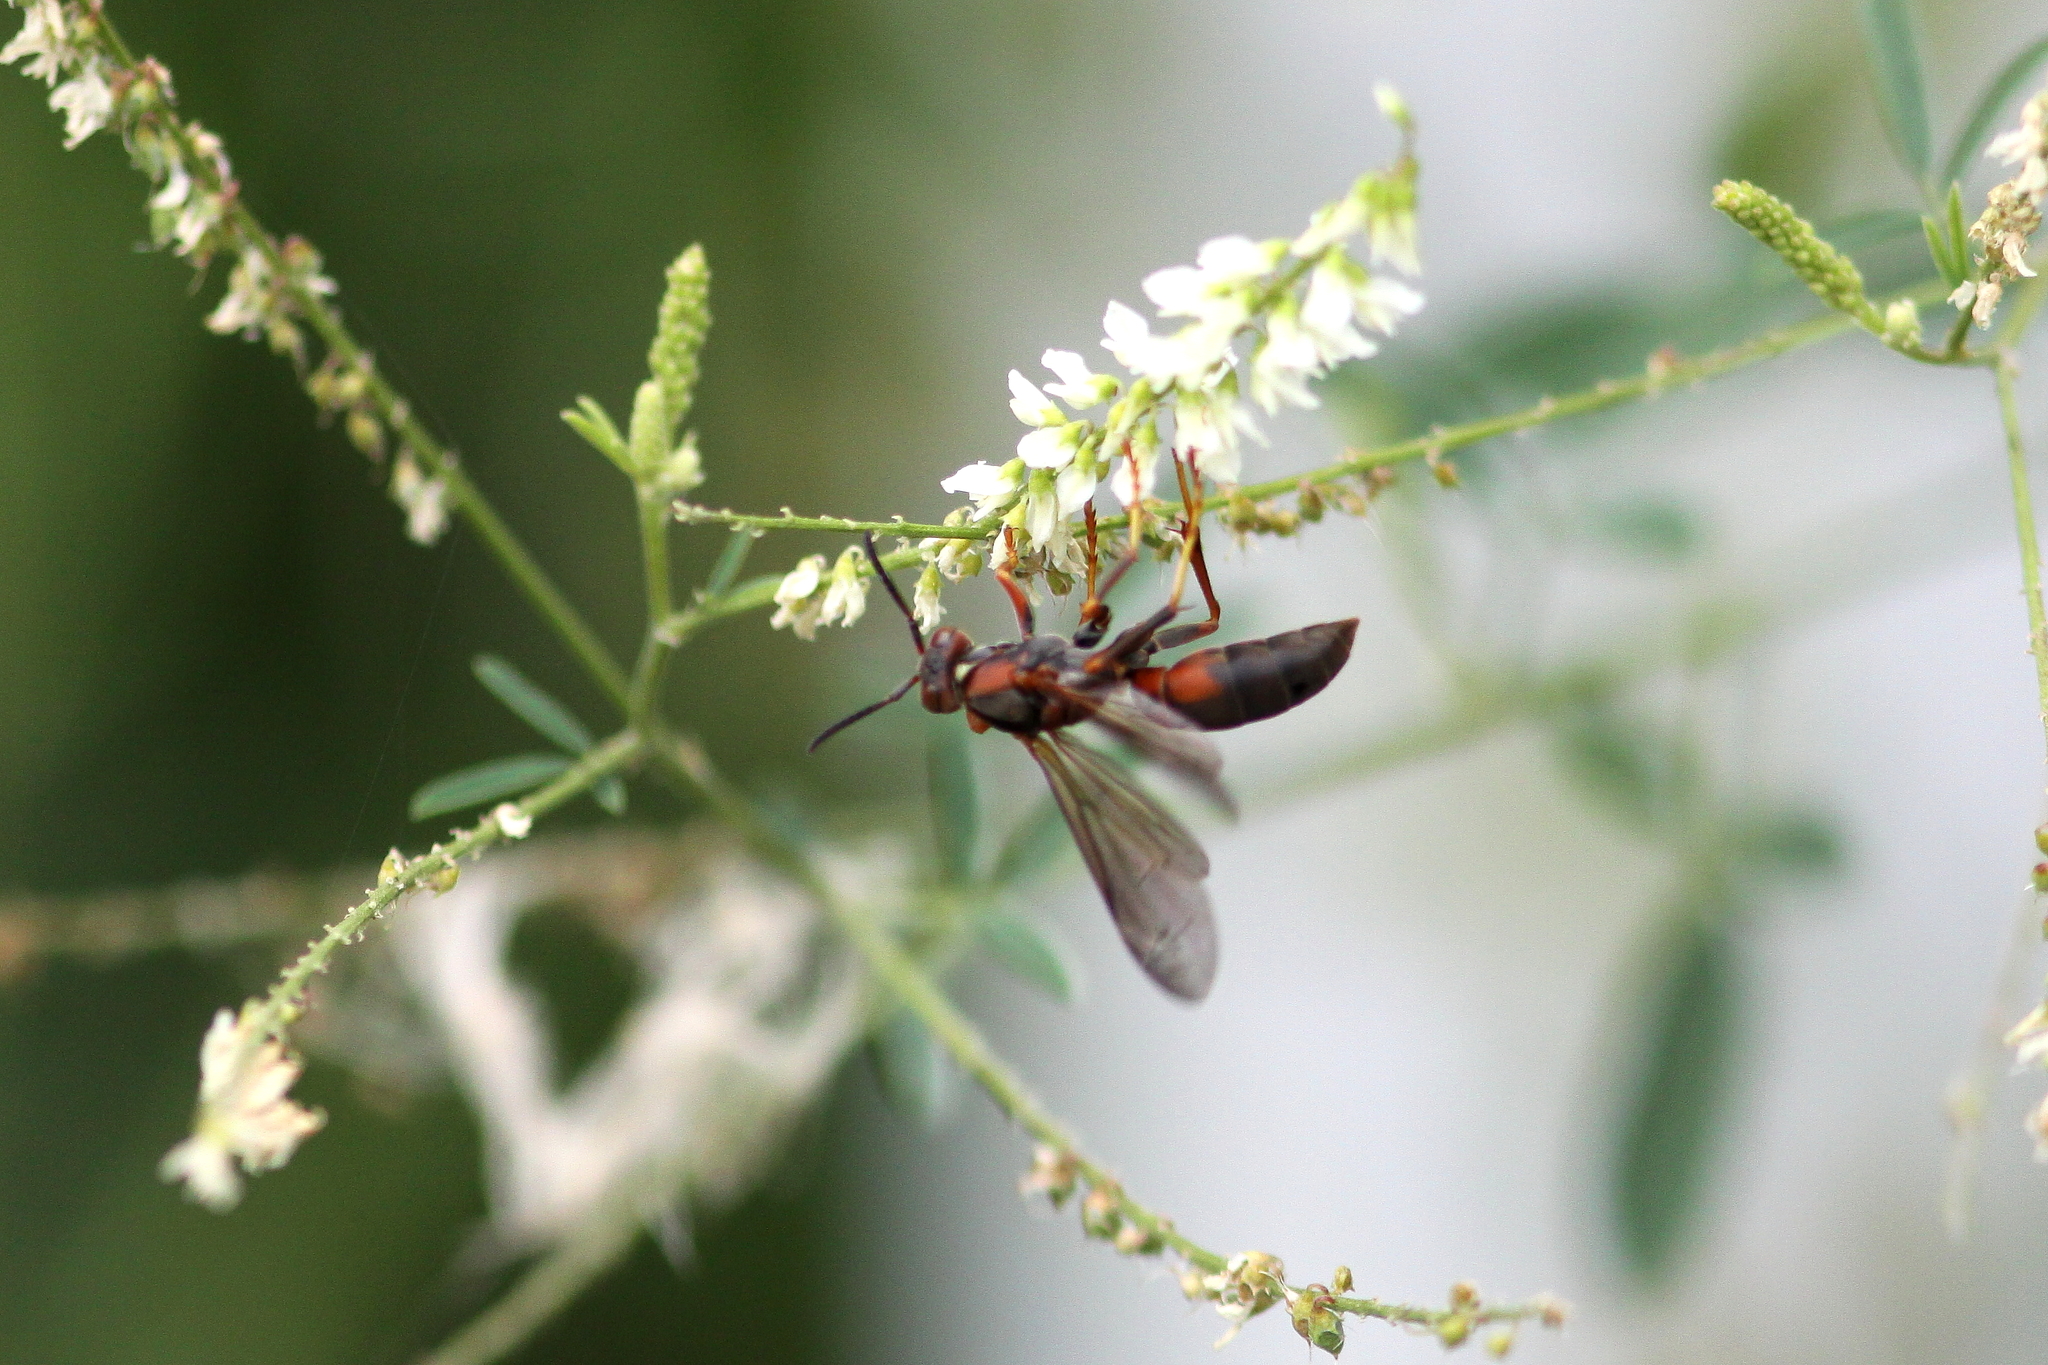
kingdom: Animalia
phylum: Arthropoda
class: Insecta
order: Hymenoptera
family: Eumenidae
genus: Polistes
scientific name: Polistes fuscatus
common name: Dark paper wasp
